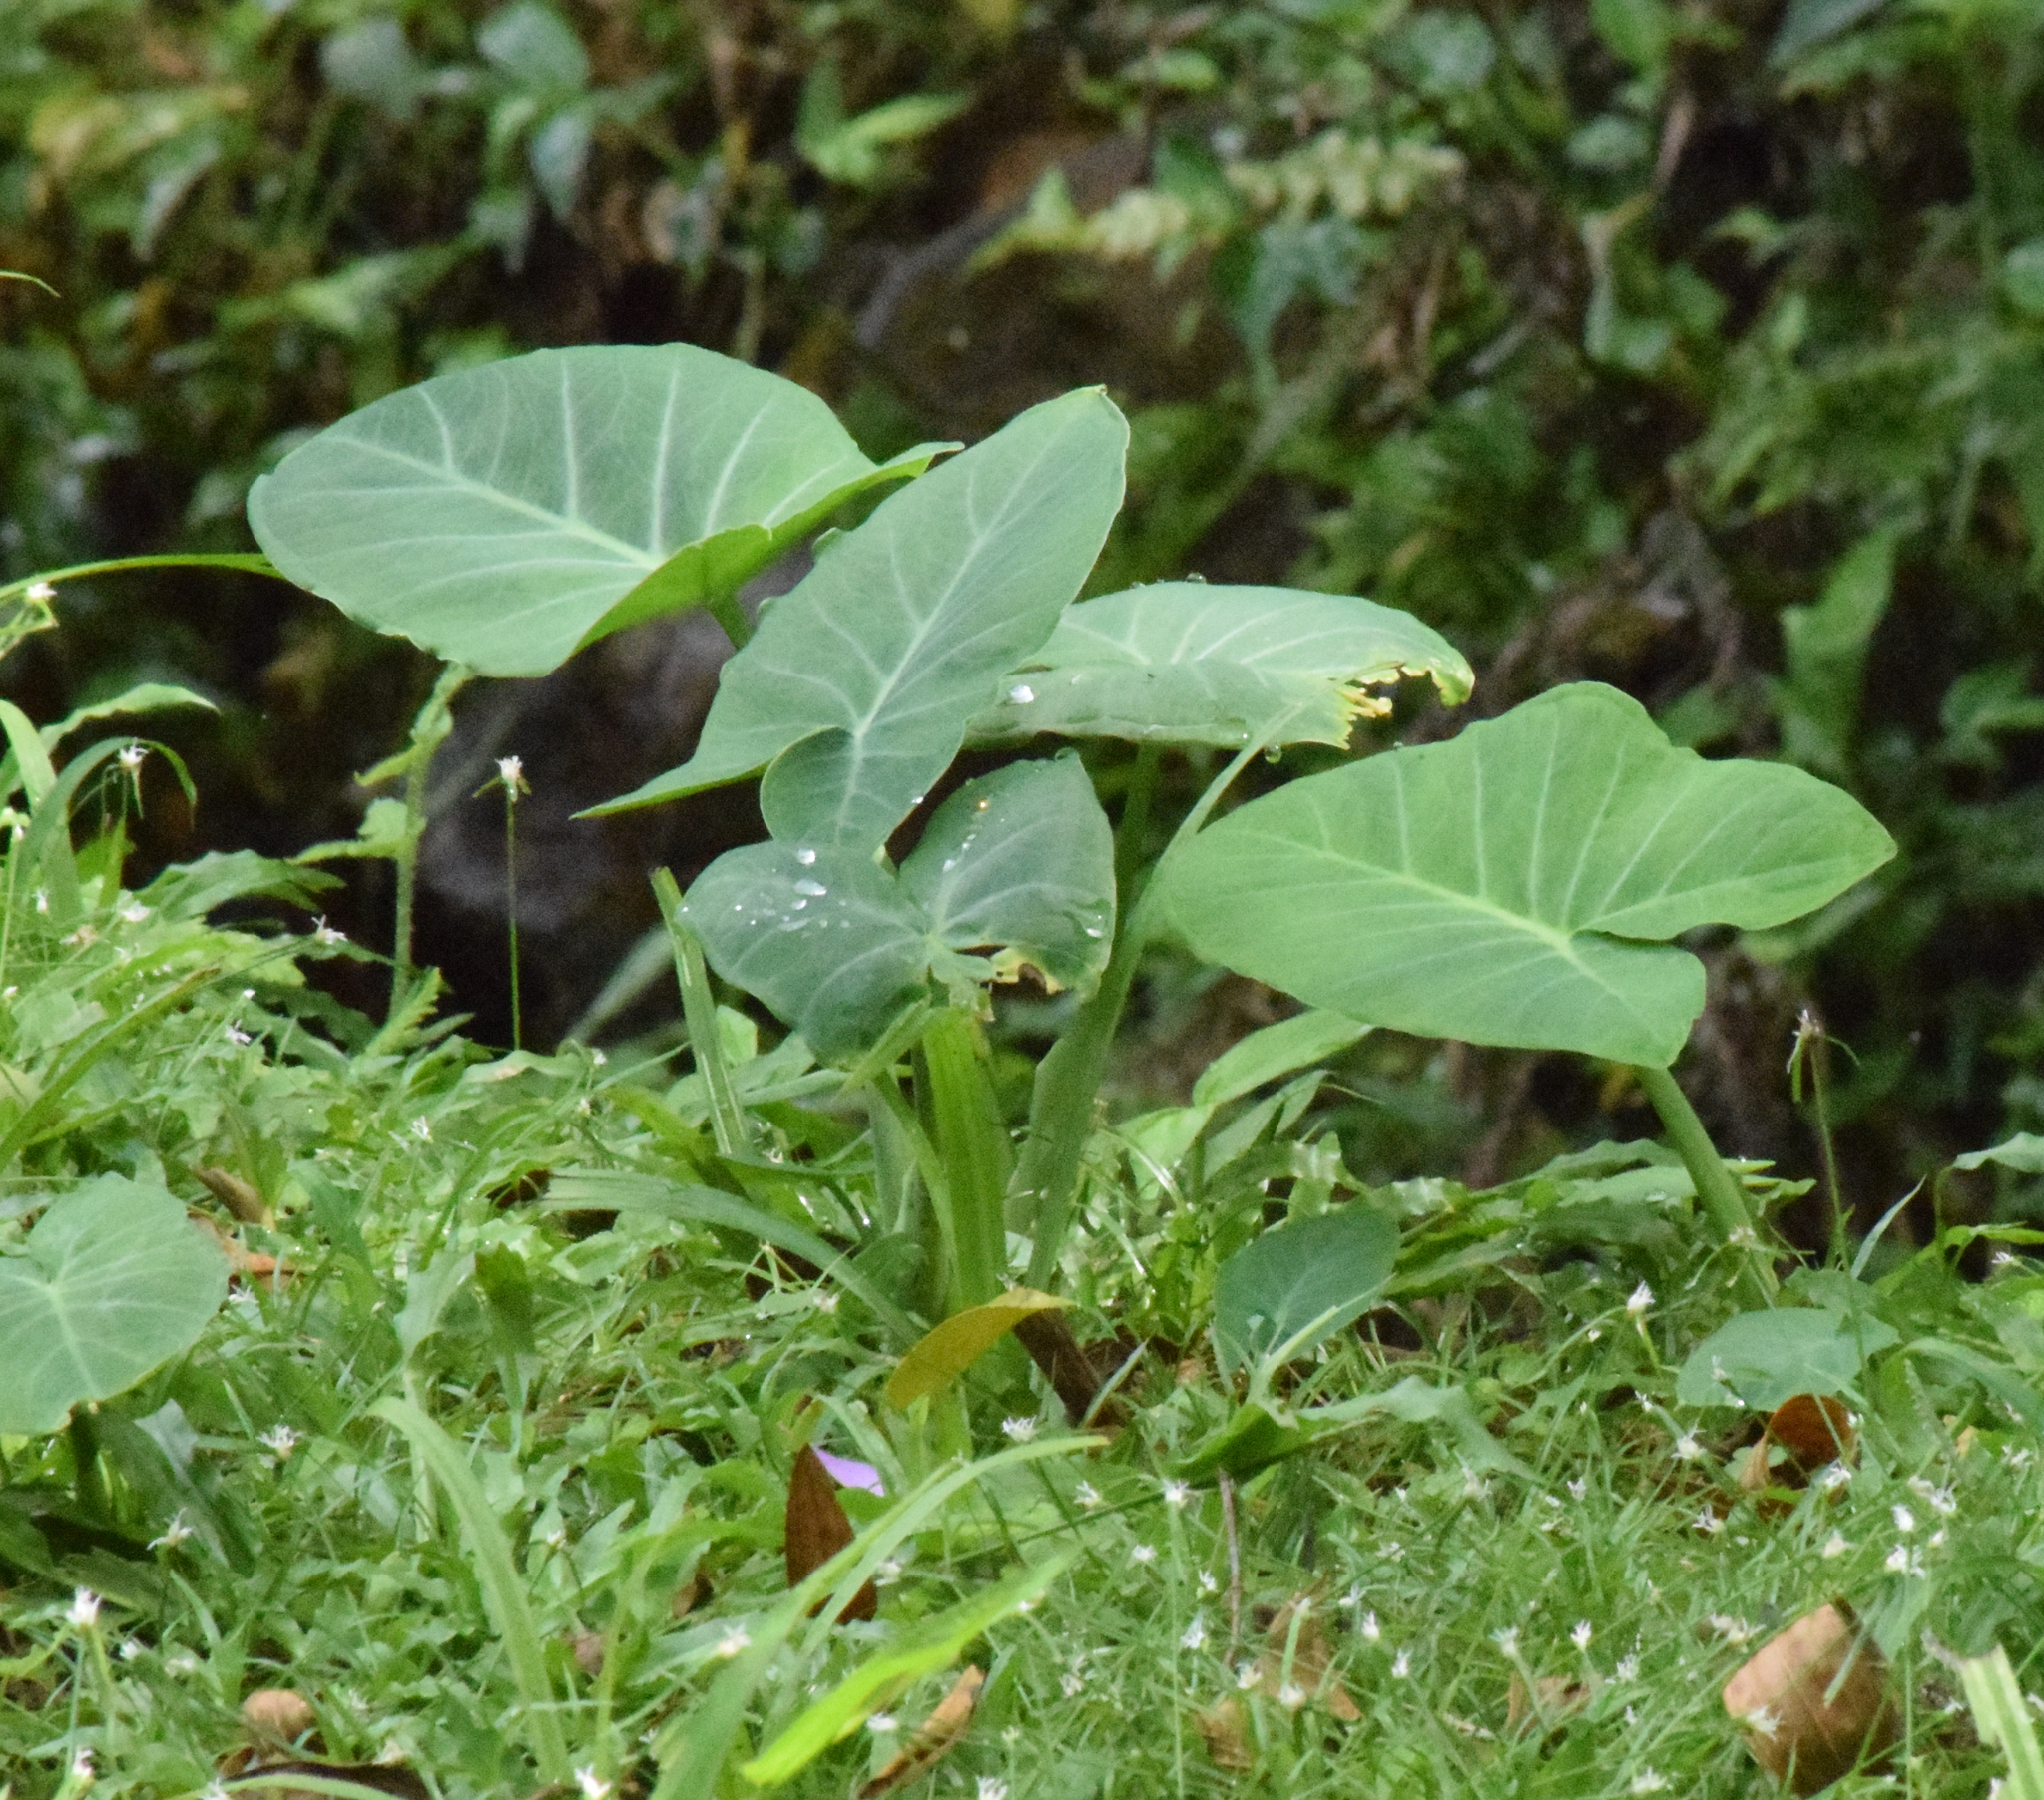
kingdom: Plantae
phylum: Tracheophyta
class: Liliopsida
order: Alismatales
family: Araceae
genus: Xanthosoma
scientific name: Xanthosoma sagittifolium
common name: Arrowleaf elephant's ear
